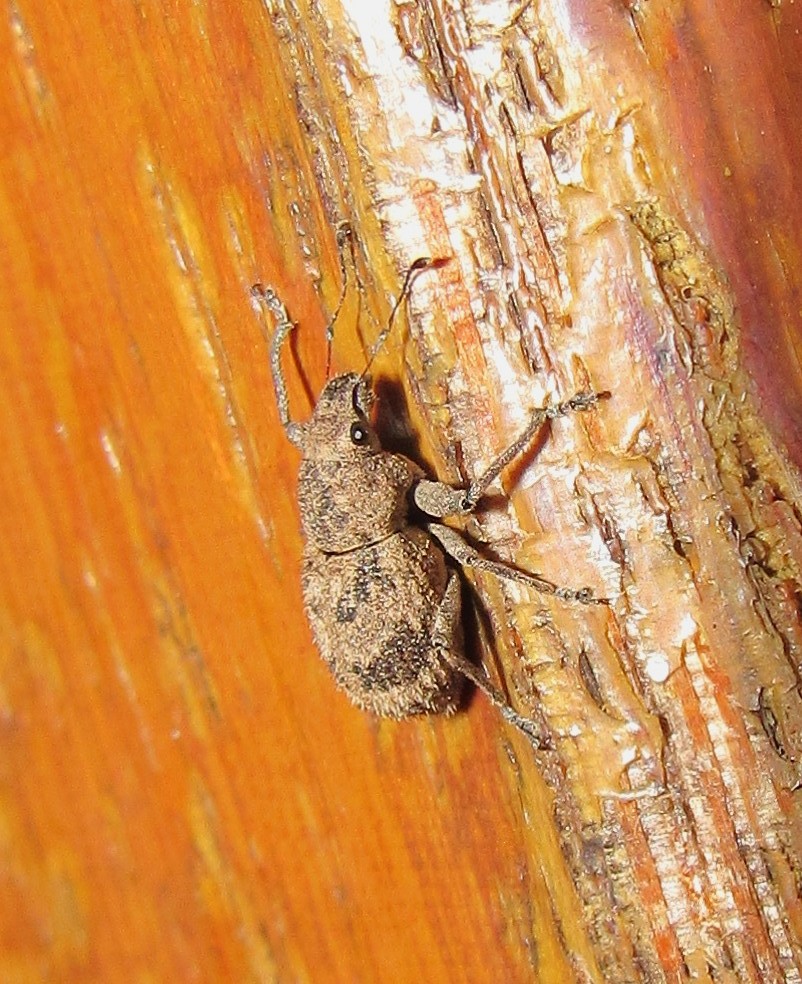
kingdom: Animalia
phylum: Arthropoda
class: Insecta
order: Coleoptera
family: Curculionidae
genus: Pantomorus
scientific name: Pantomorus
